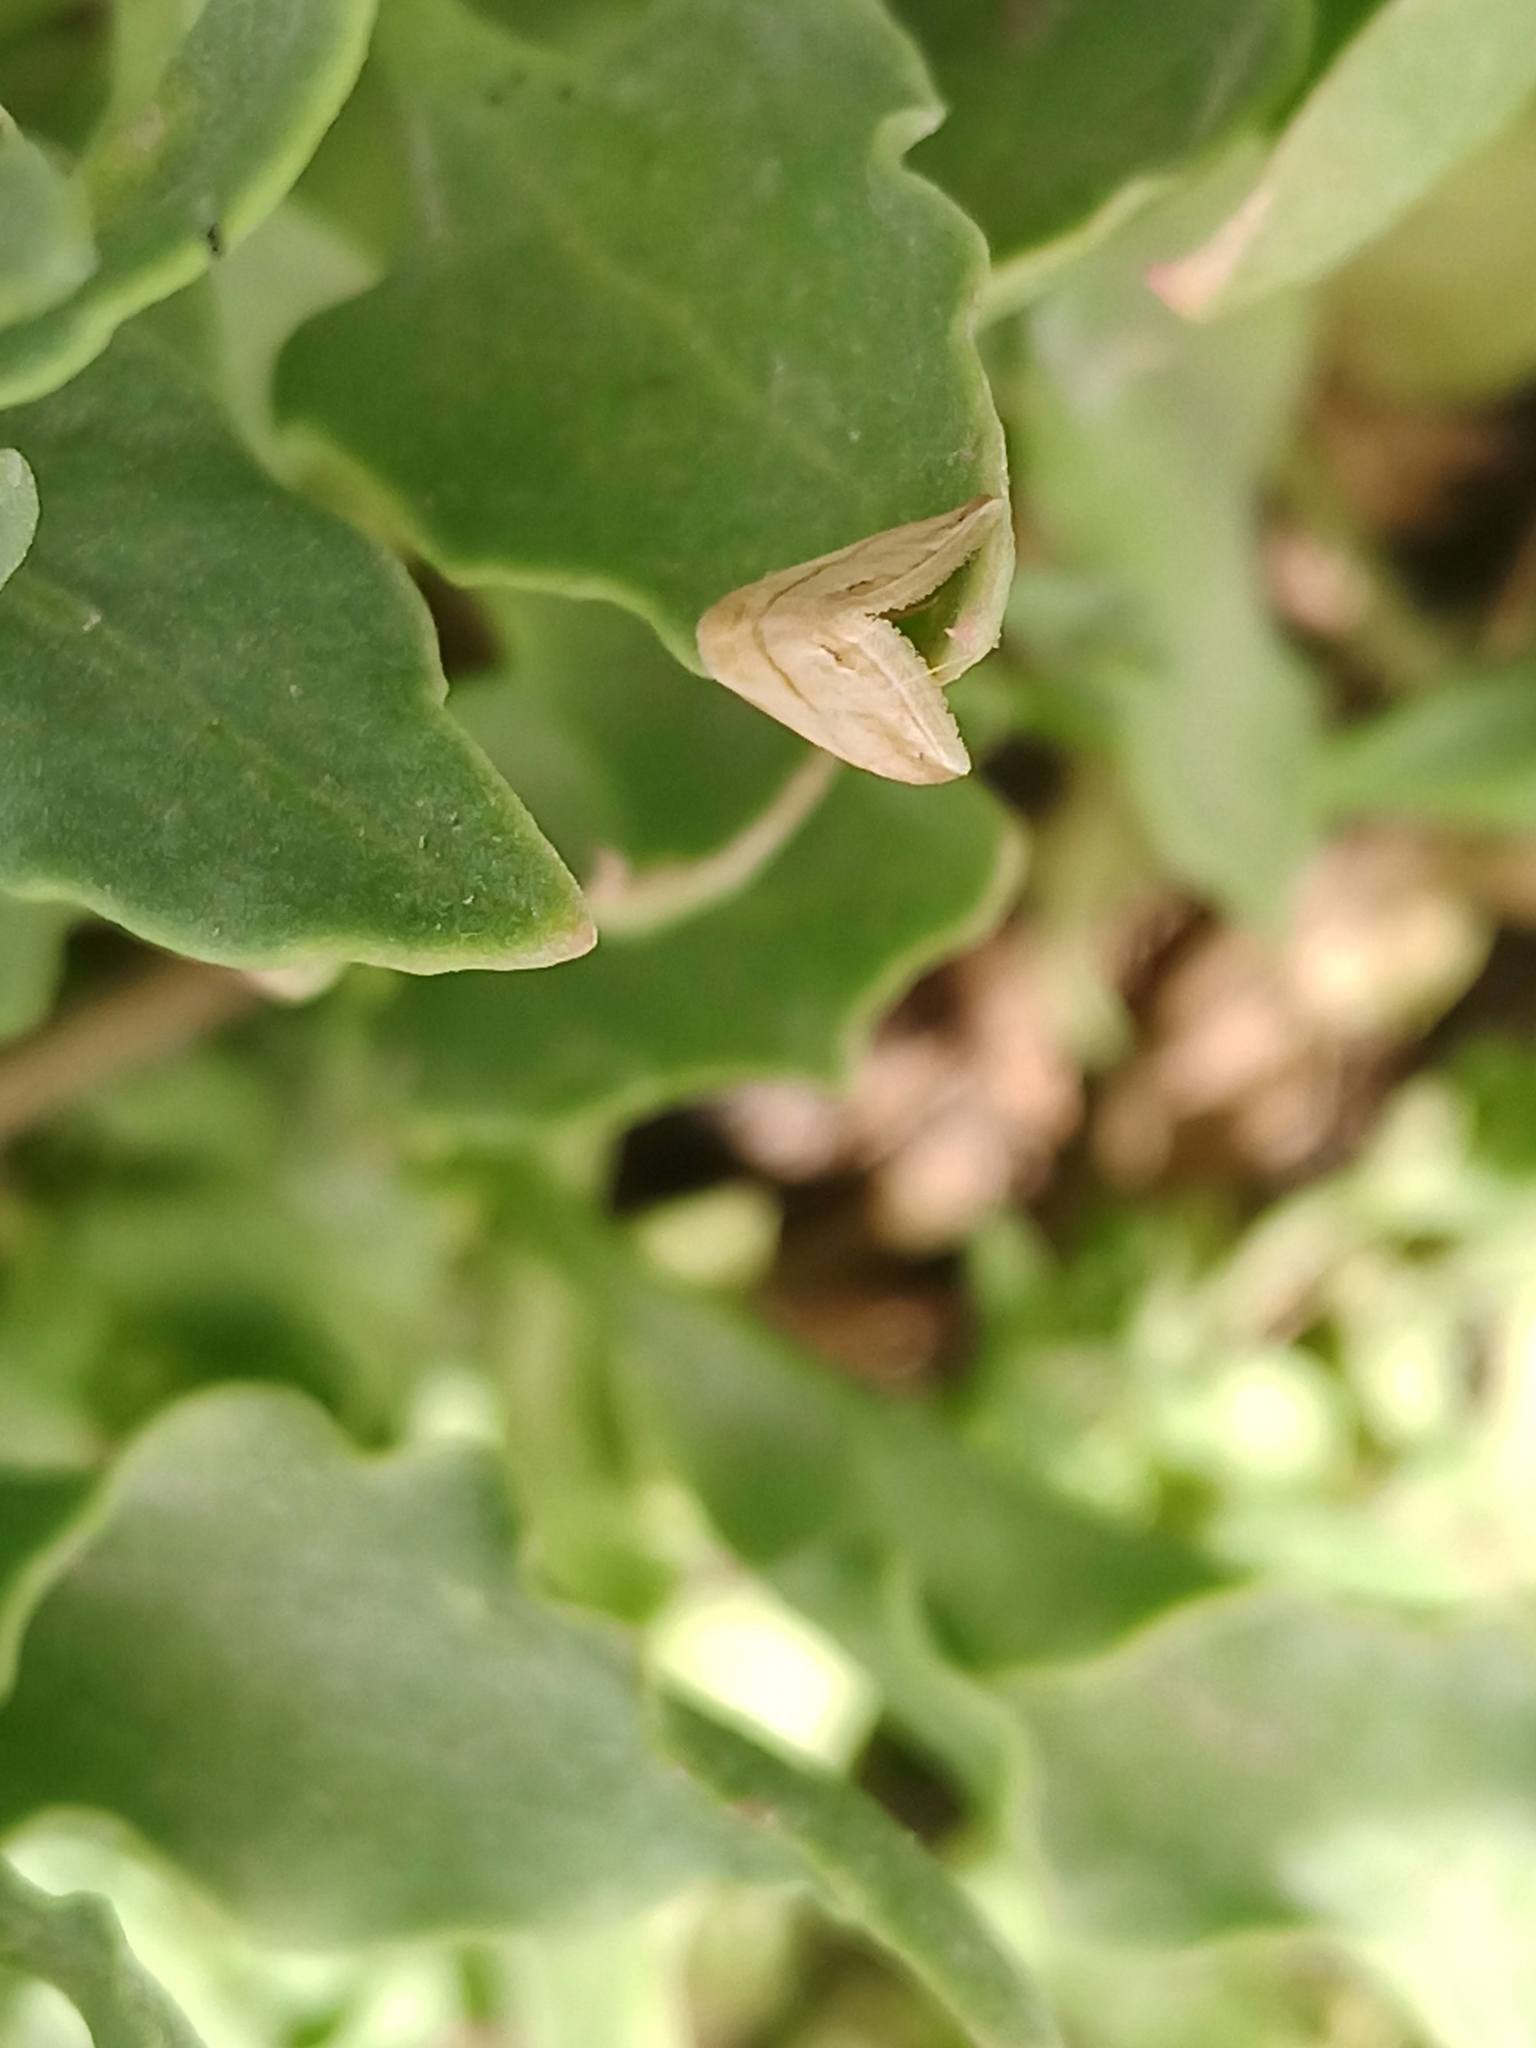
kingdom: Animalia
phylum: Arthropoda
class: Insecta
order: Lepidoptera
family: Noctuidae
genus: Eublemma
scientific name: Eublemma cochylioides
